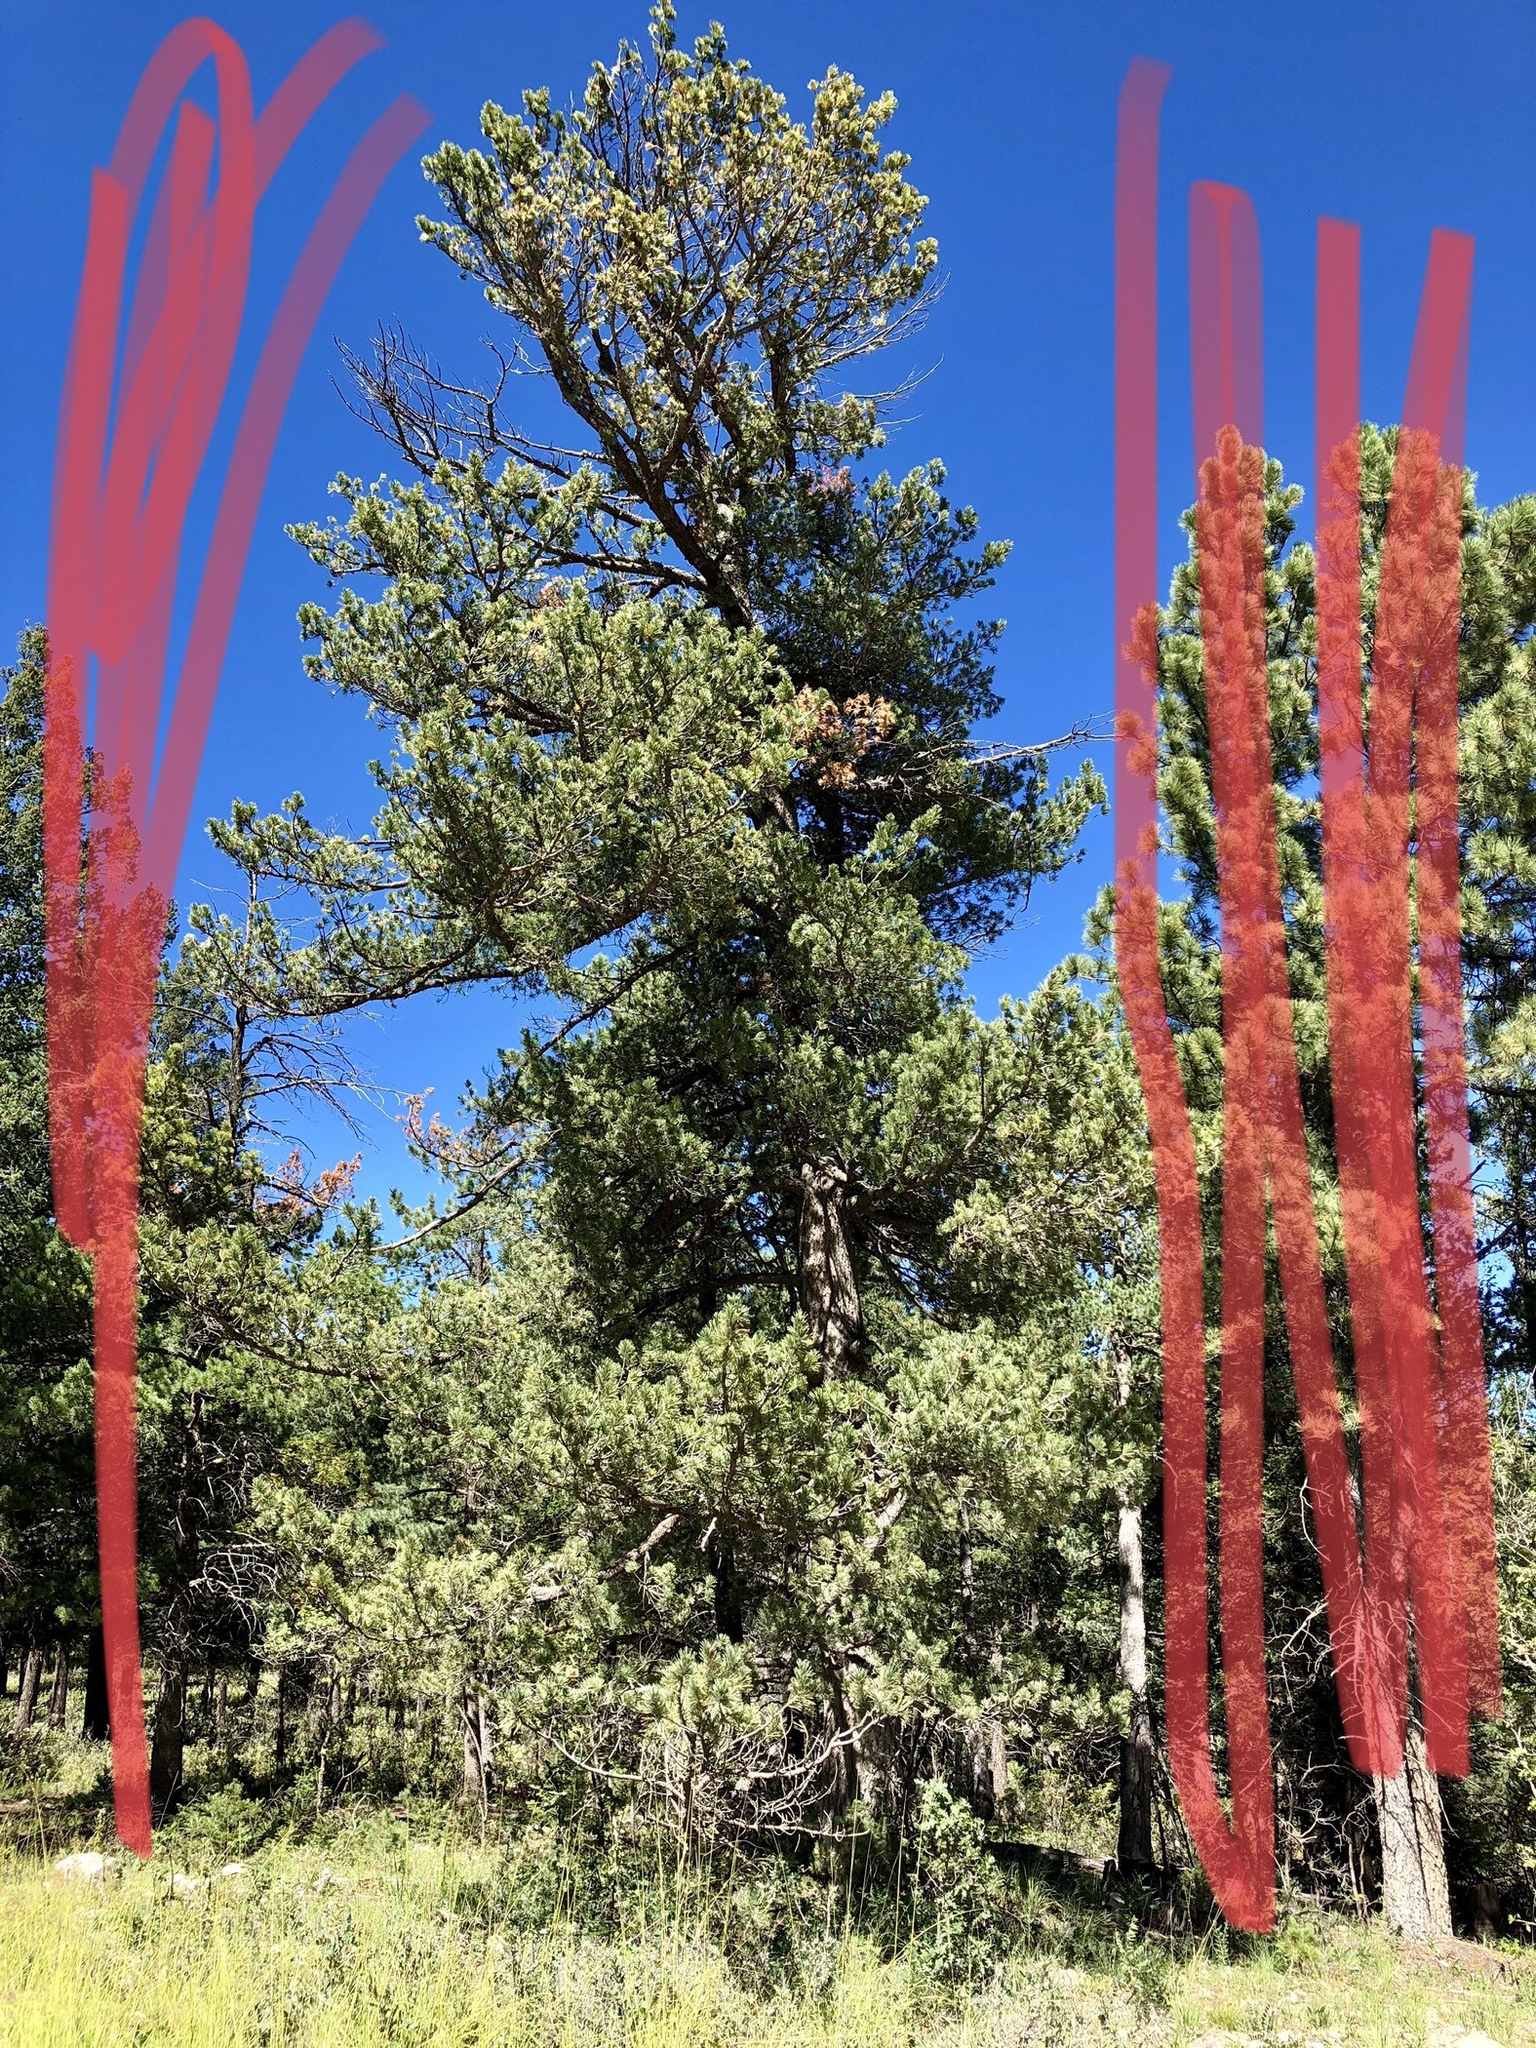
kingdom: Plantae
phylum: Tracheophyta
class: Pinopsida
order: Pinales
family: Pinaceae
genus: Pinus
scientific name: Pinus strobiformis
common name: Southwestern white pine
